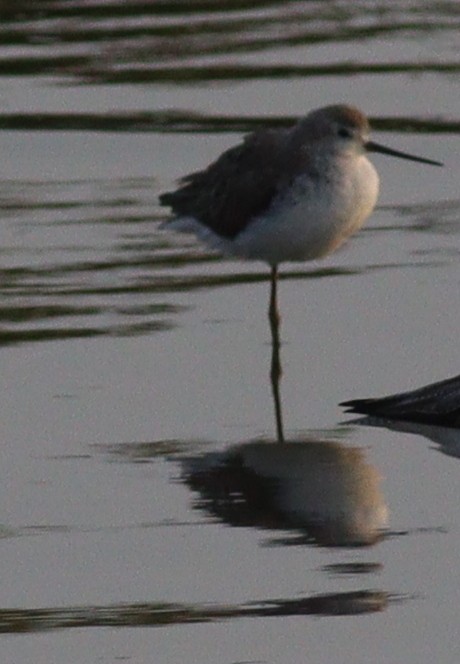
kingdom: Animalia
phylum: Chordata
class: Aves
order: Charadriiformes
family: Scolopacidae
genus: Tringa
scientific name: Tringa stagnatilis
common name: Marsh sandpiper
